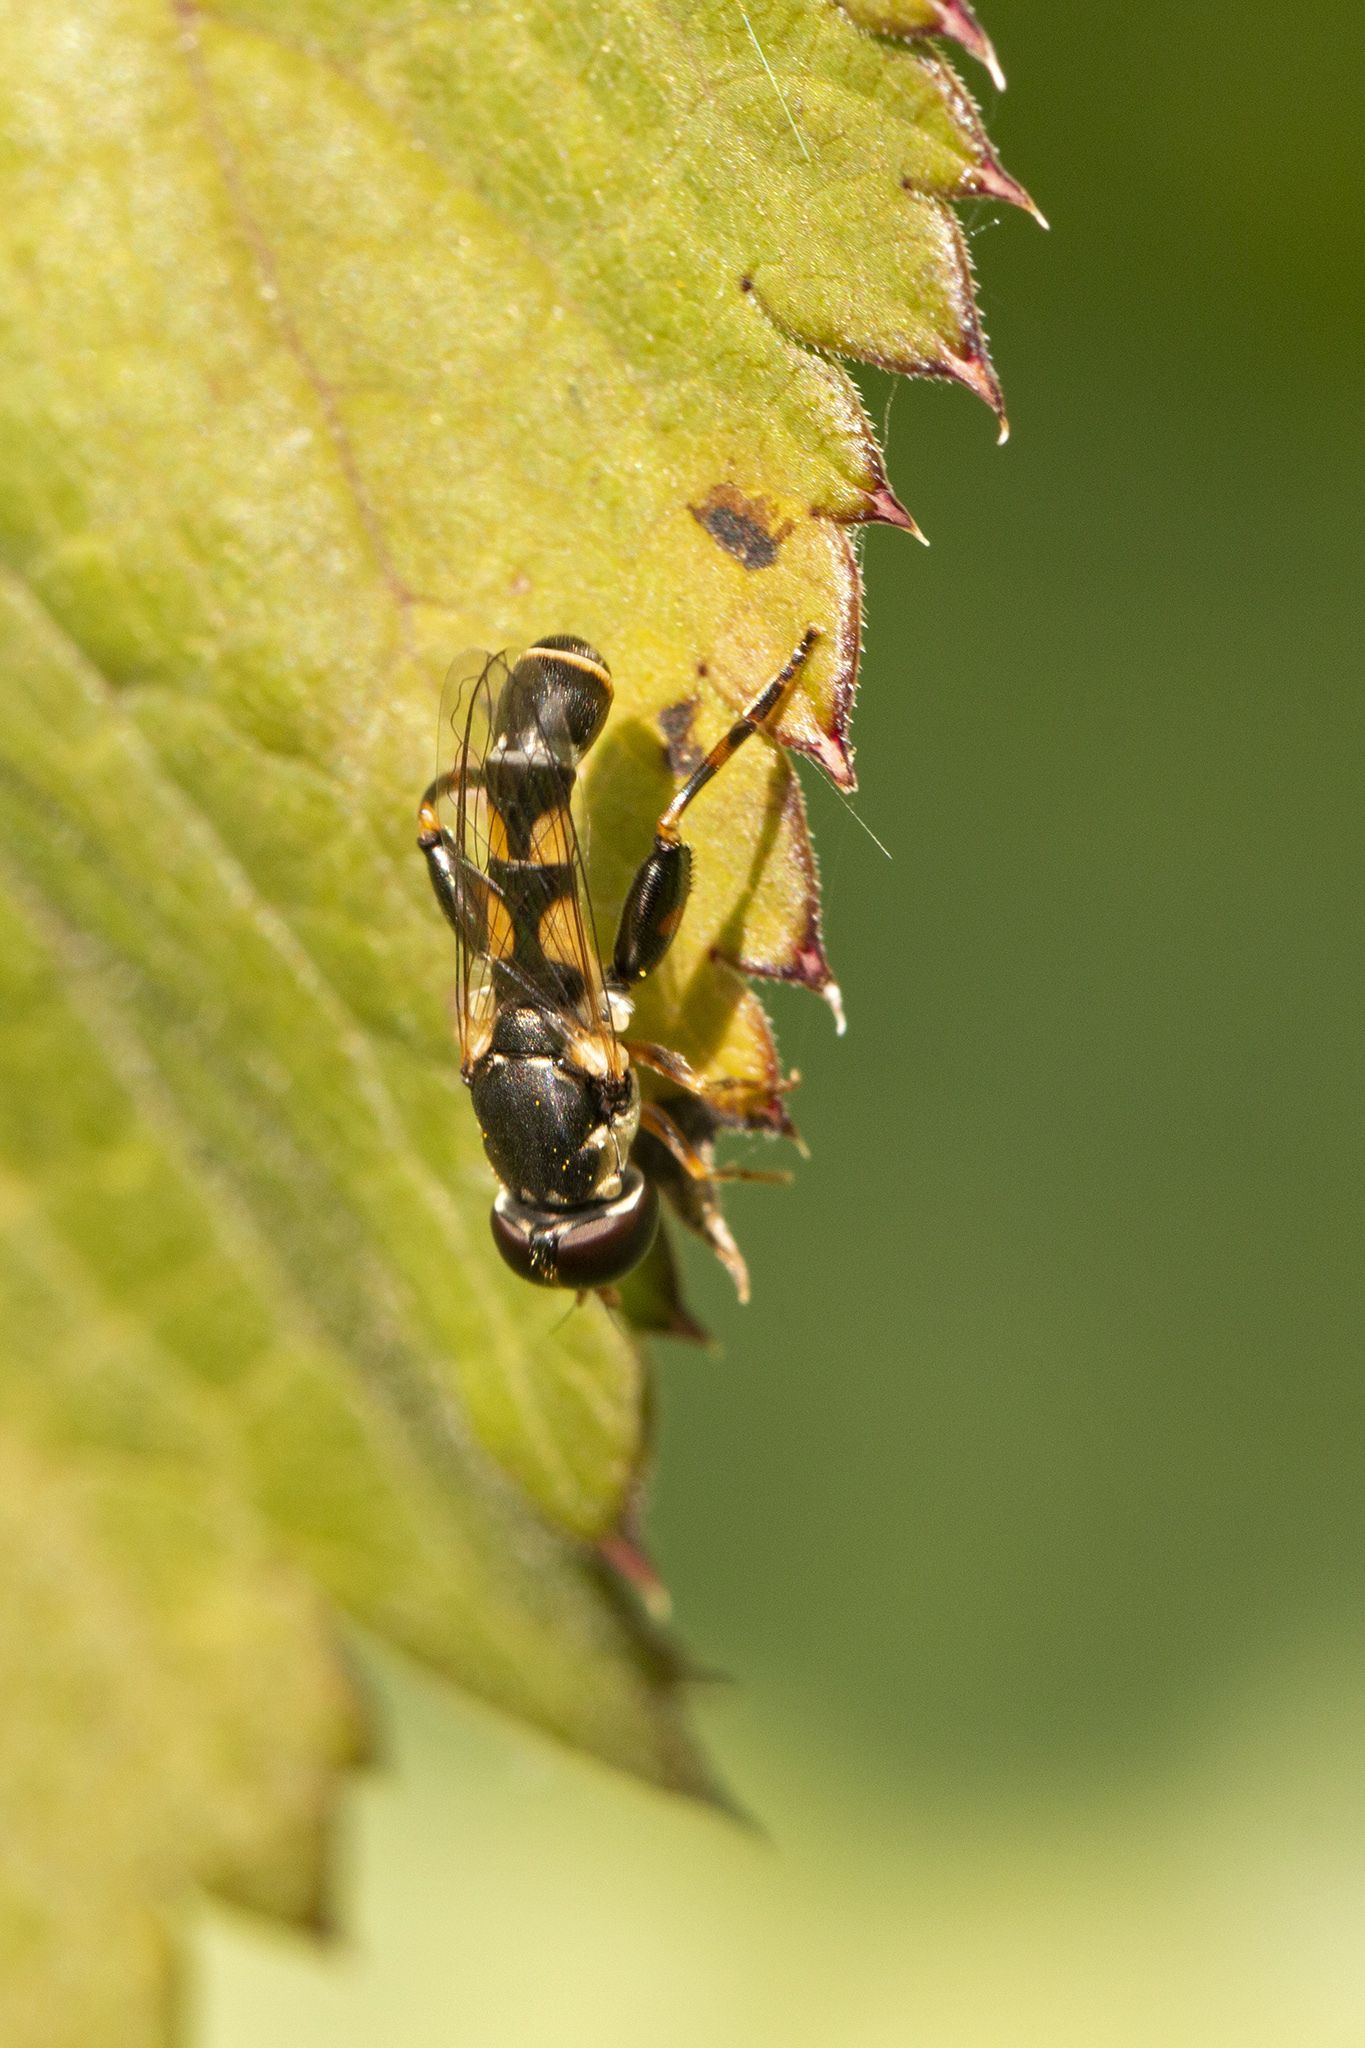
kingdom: Animalia
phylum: Arthropoda
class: Insecta
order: Diptera
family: Syrphidae
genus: Syritta
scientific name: Syritta pipiens
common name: Hover fly
